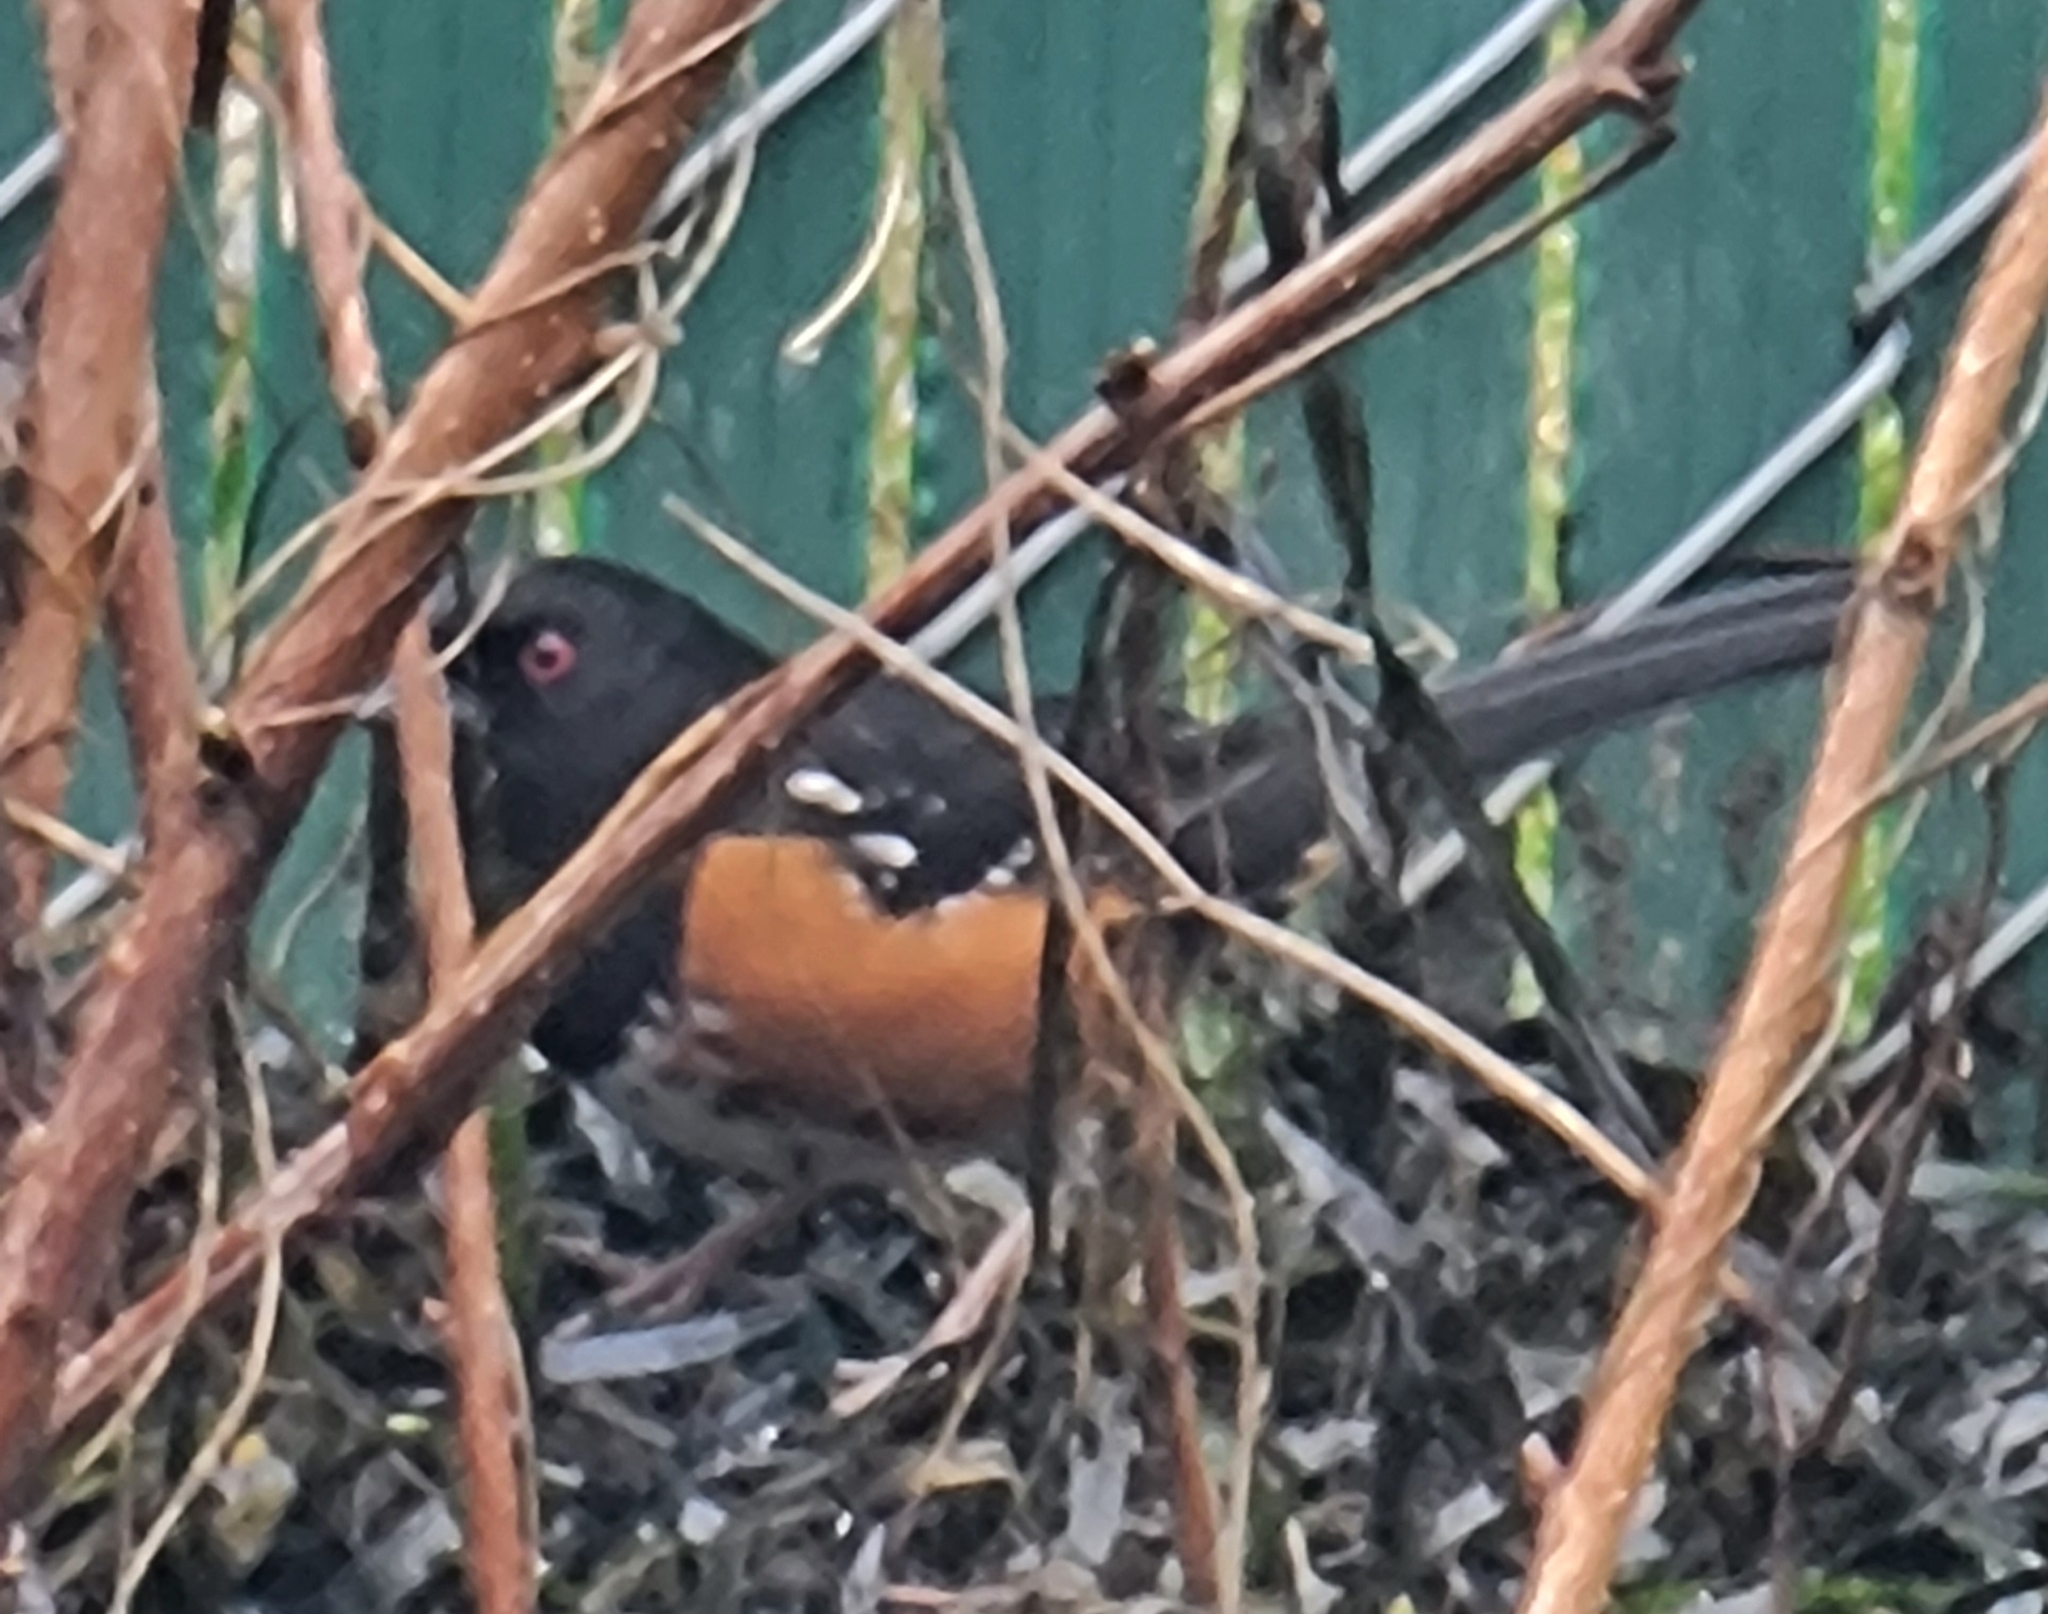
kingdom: Animalia
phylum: Chordata
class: Aves
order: Passeriformes
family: Passerellidae
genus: Pipilo
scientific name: Pipilo maculatus
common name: Spotted towhee
